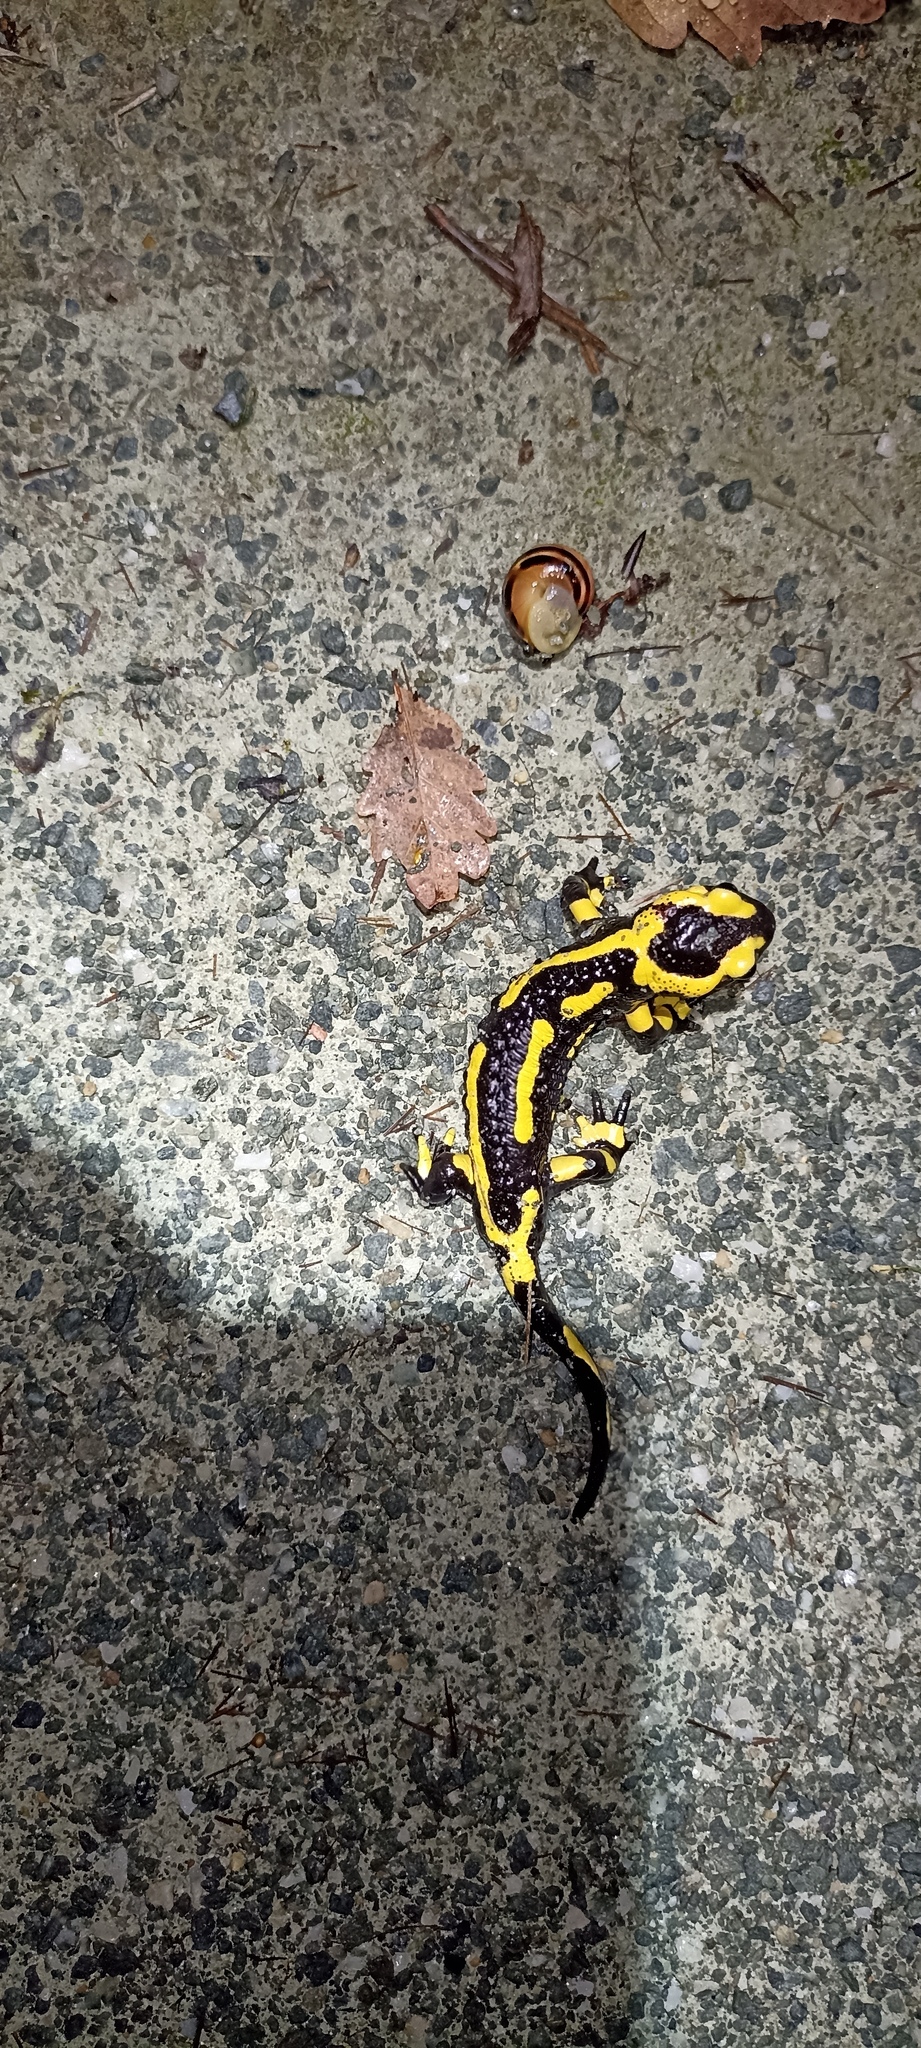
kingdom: Animalia
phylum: Chordata
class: Amphibia
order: Caudata
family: Salamandridae
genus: Salamandra
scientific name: Salamandra salamandra
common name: Fire salamander
